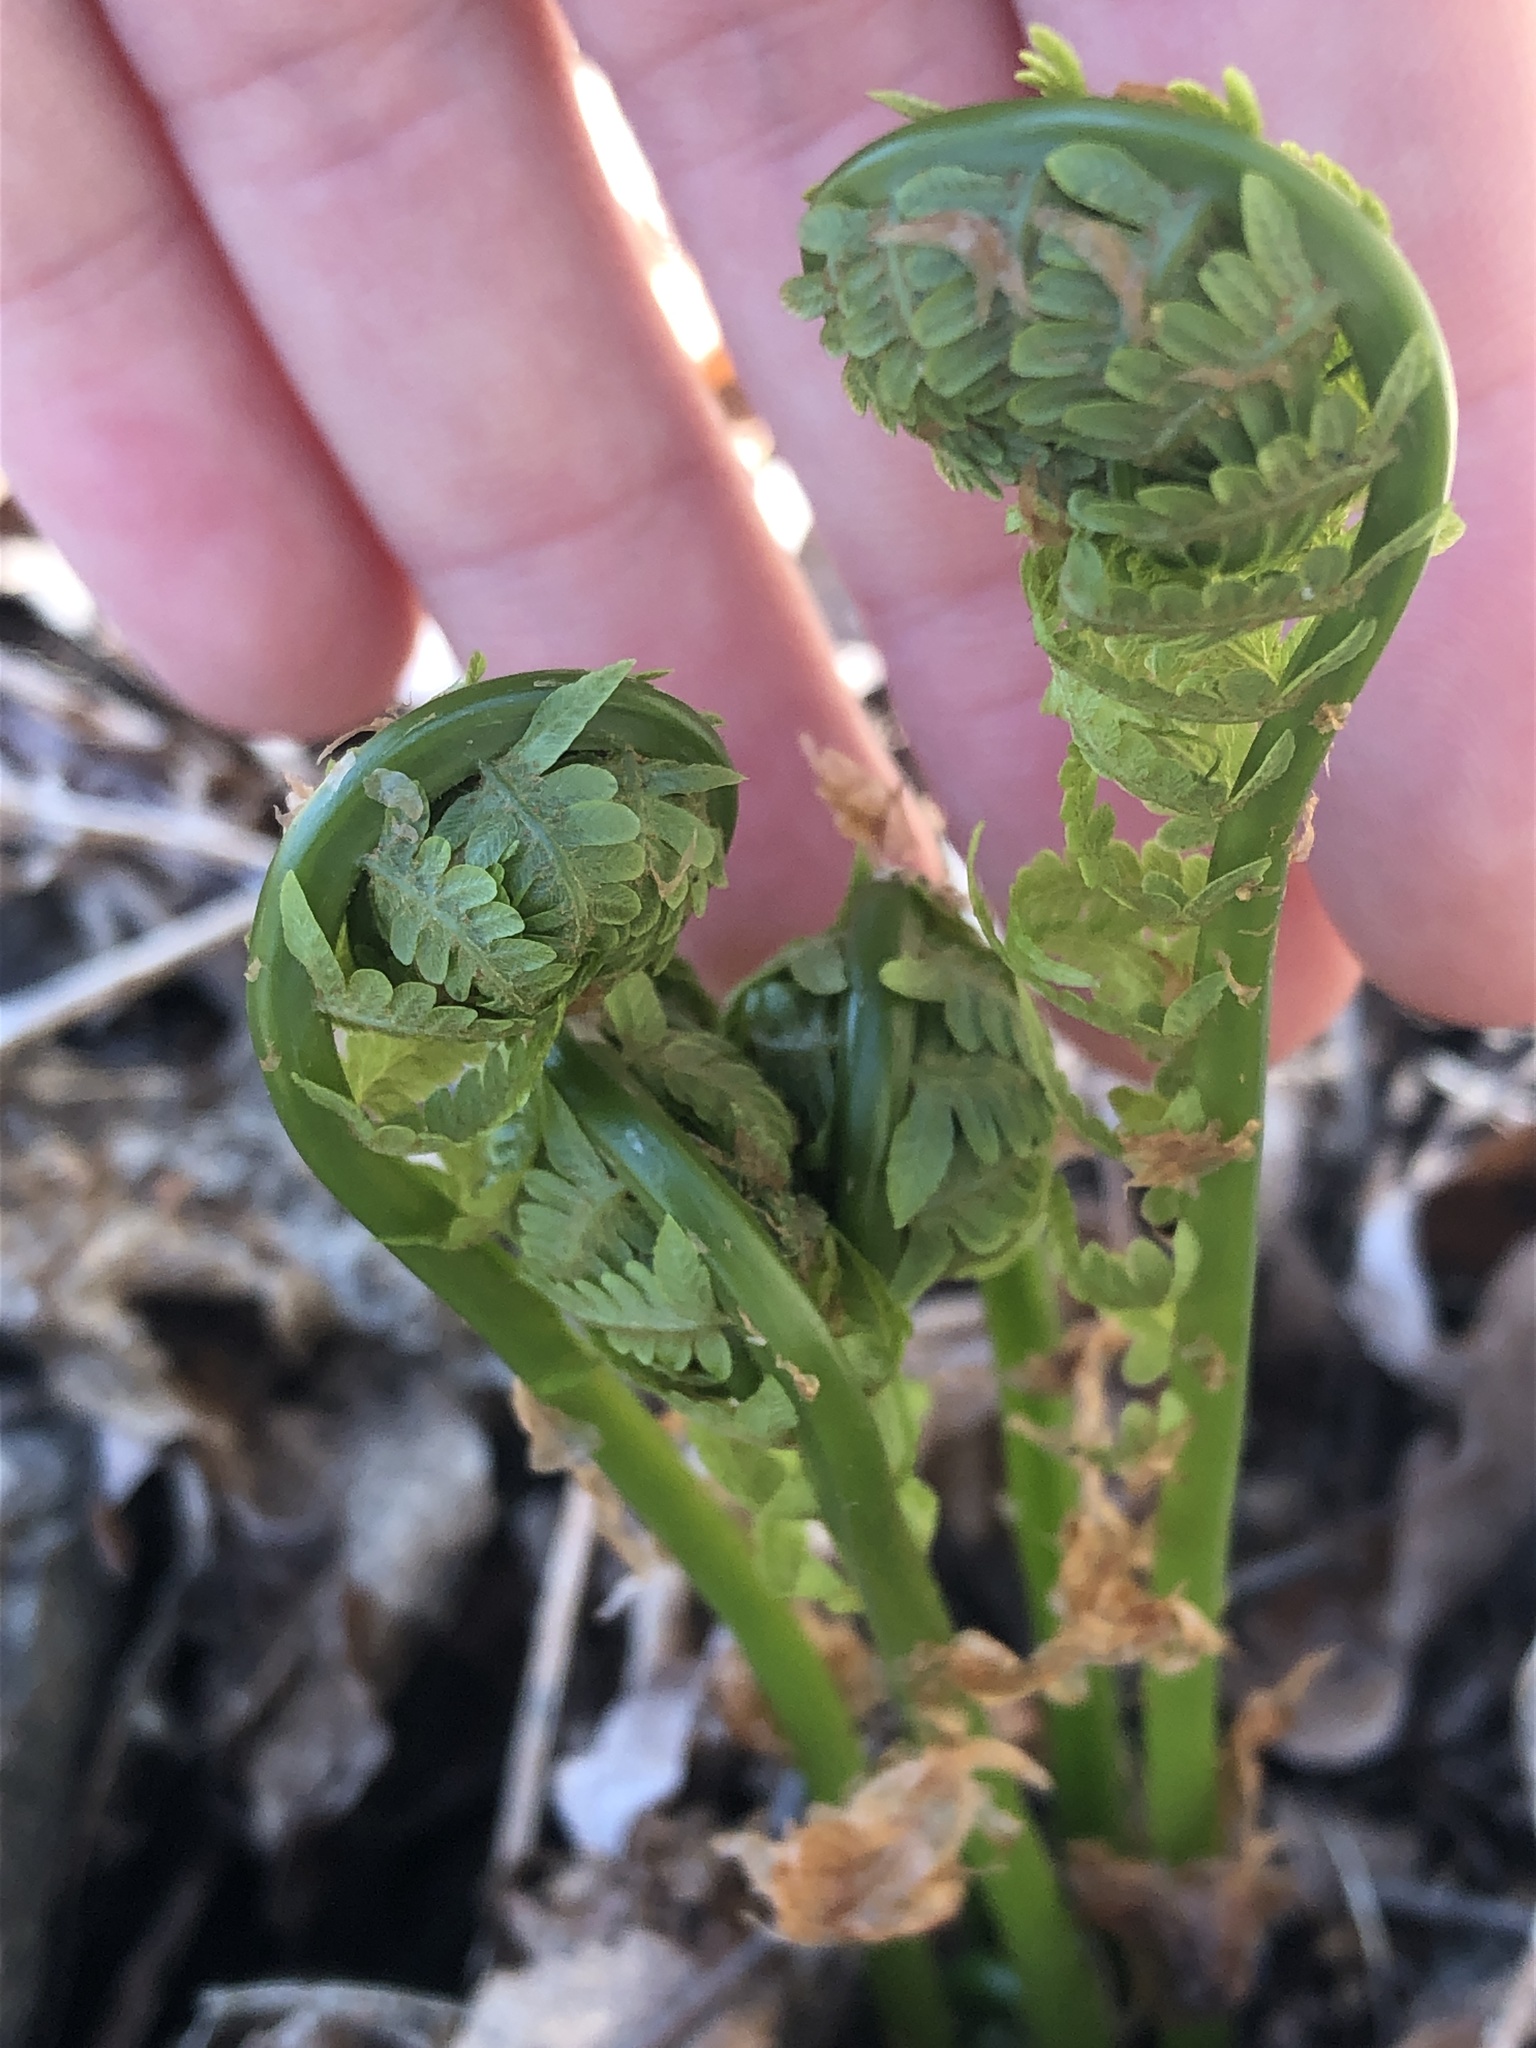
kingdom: Plantae
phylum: Tracheophyta
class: Polypodiopsida
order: Polypodiales
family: Onocleaceae
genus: Matteuccia
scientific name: Matteuccia struthiopteris
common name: Ostrich fern
